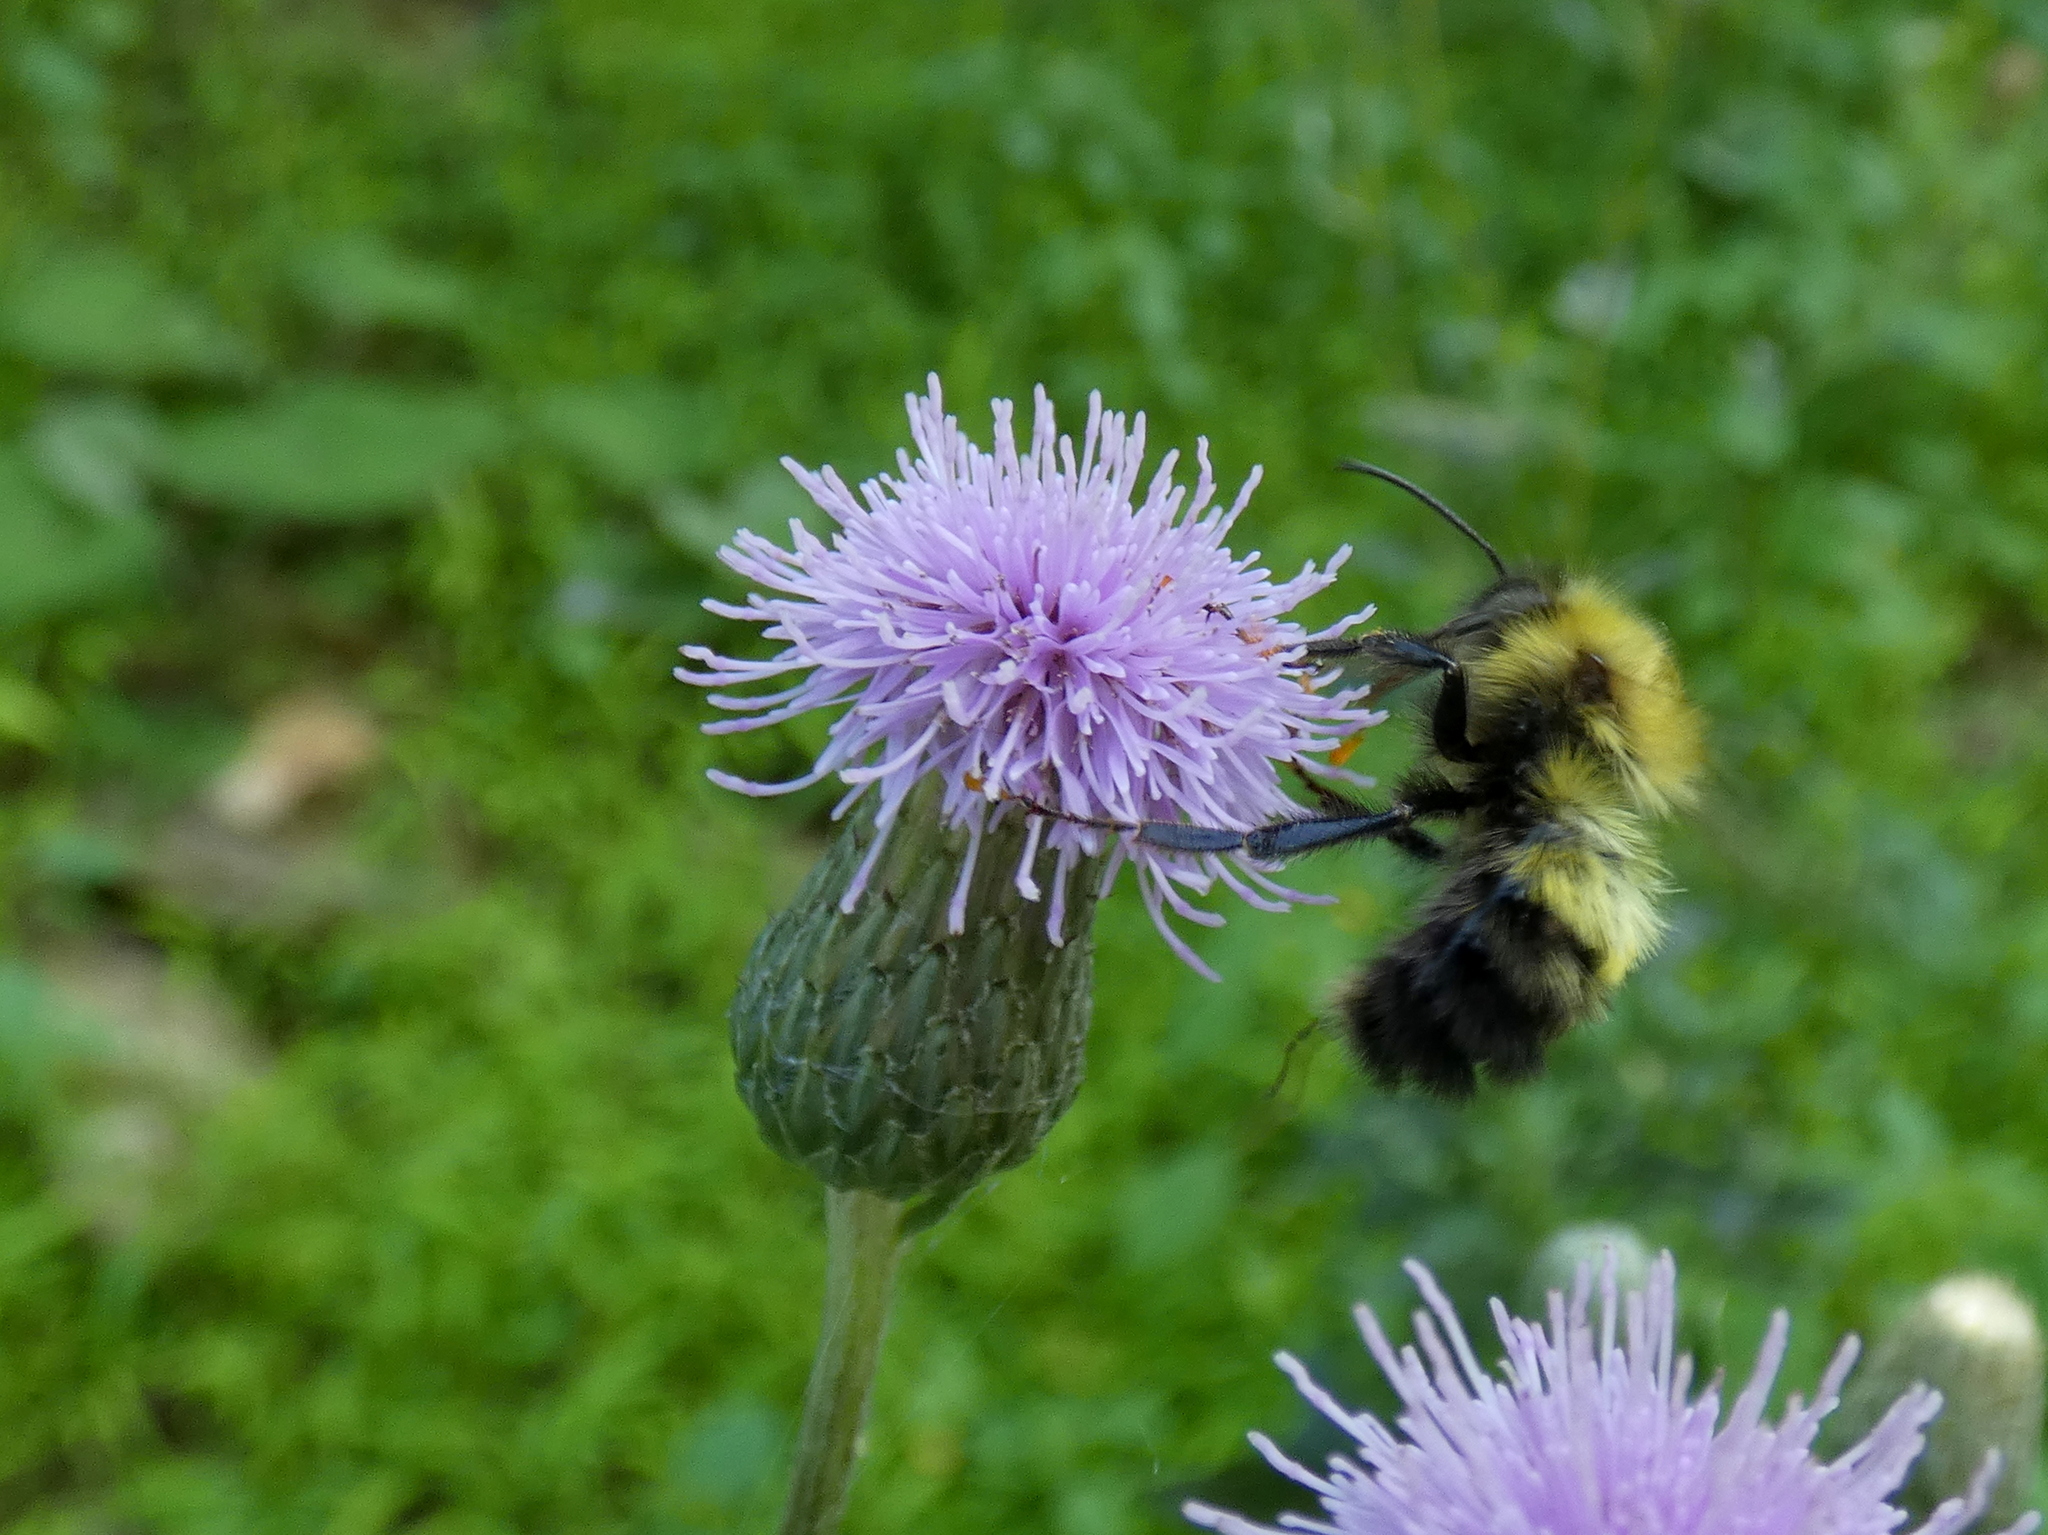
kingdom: Animalia
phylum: Arthropoda
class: Insecta
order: Hymenoptera
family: Apidae
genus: Bombus
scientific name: Bombus perplexus
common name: Confusing bumble bee
